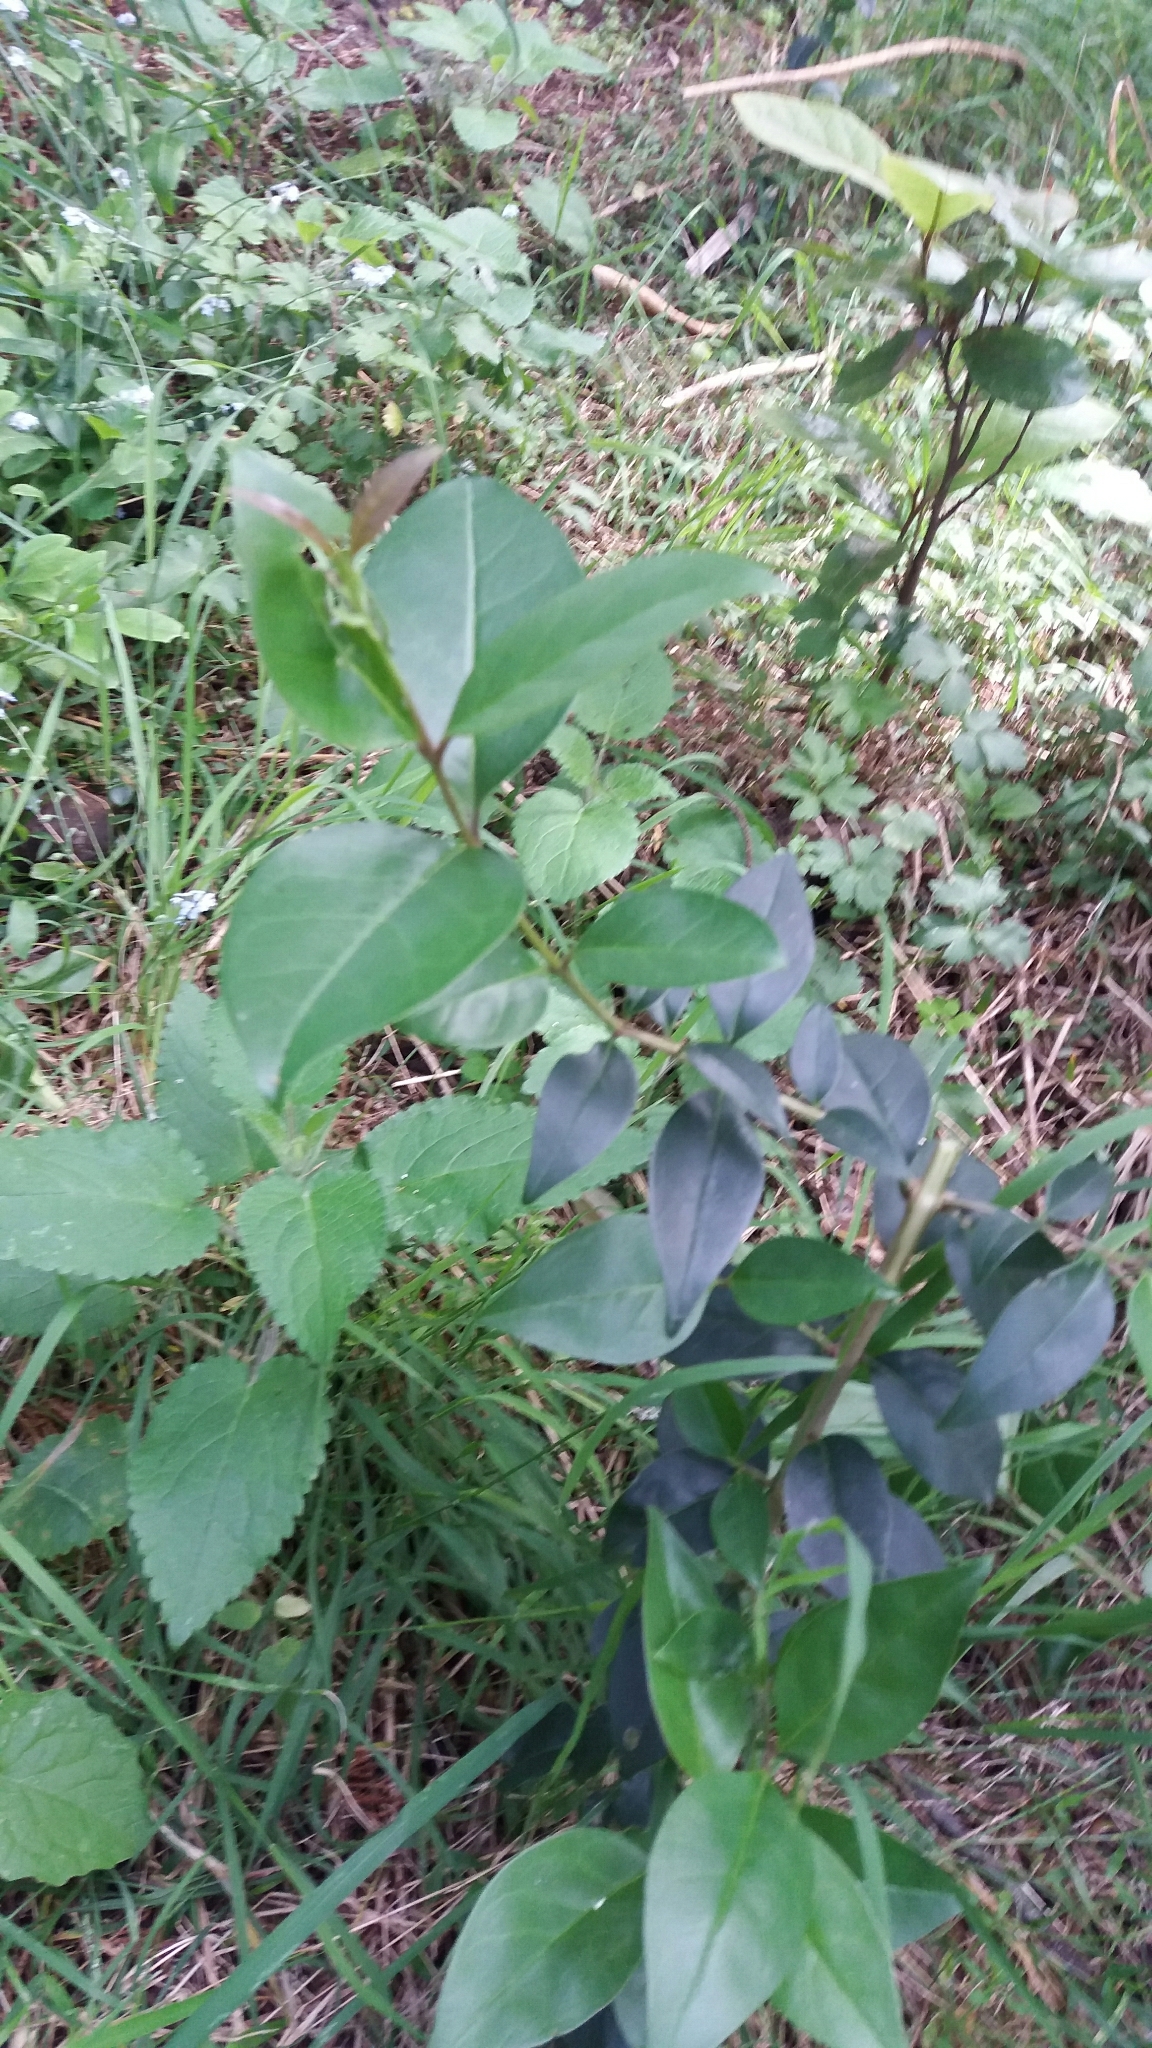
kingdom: Plantae
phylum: Tracheophyta
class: Magnoliopsida
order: Lamiales
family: Oleaceae
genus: Ligustrum
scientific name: Ligustrum lucidum
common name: Glossy privet
